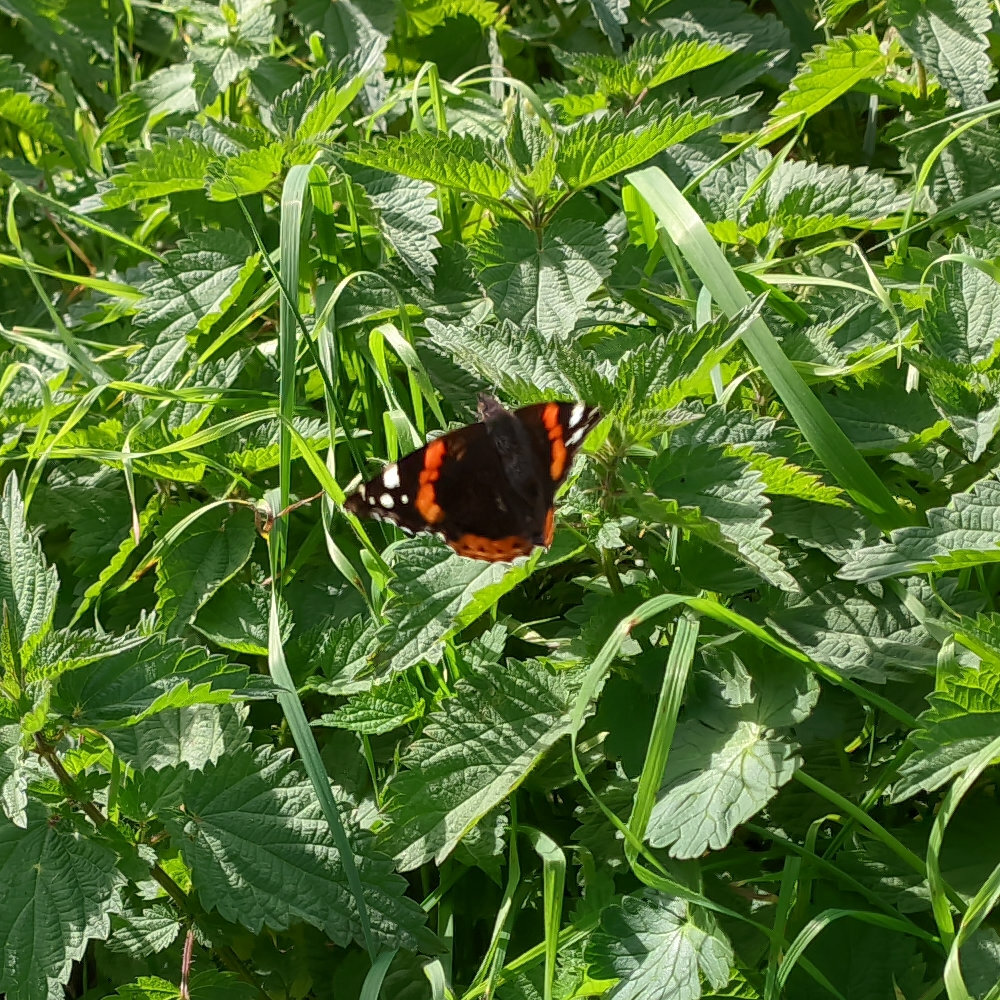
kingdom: Animalia
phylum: Arthropoda
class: Insecta
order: Lepidoptera
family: Nymphalidae
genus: Vanessa
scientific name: Vanessa atalanta
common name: Red admiral
